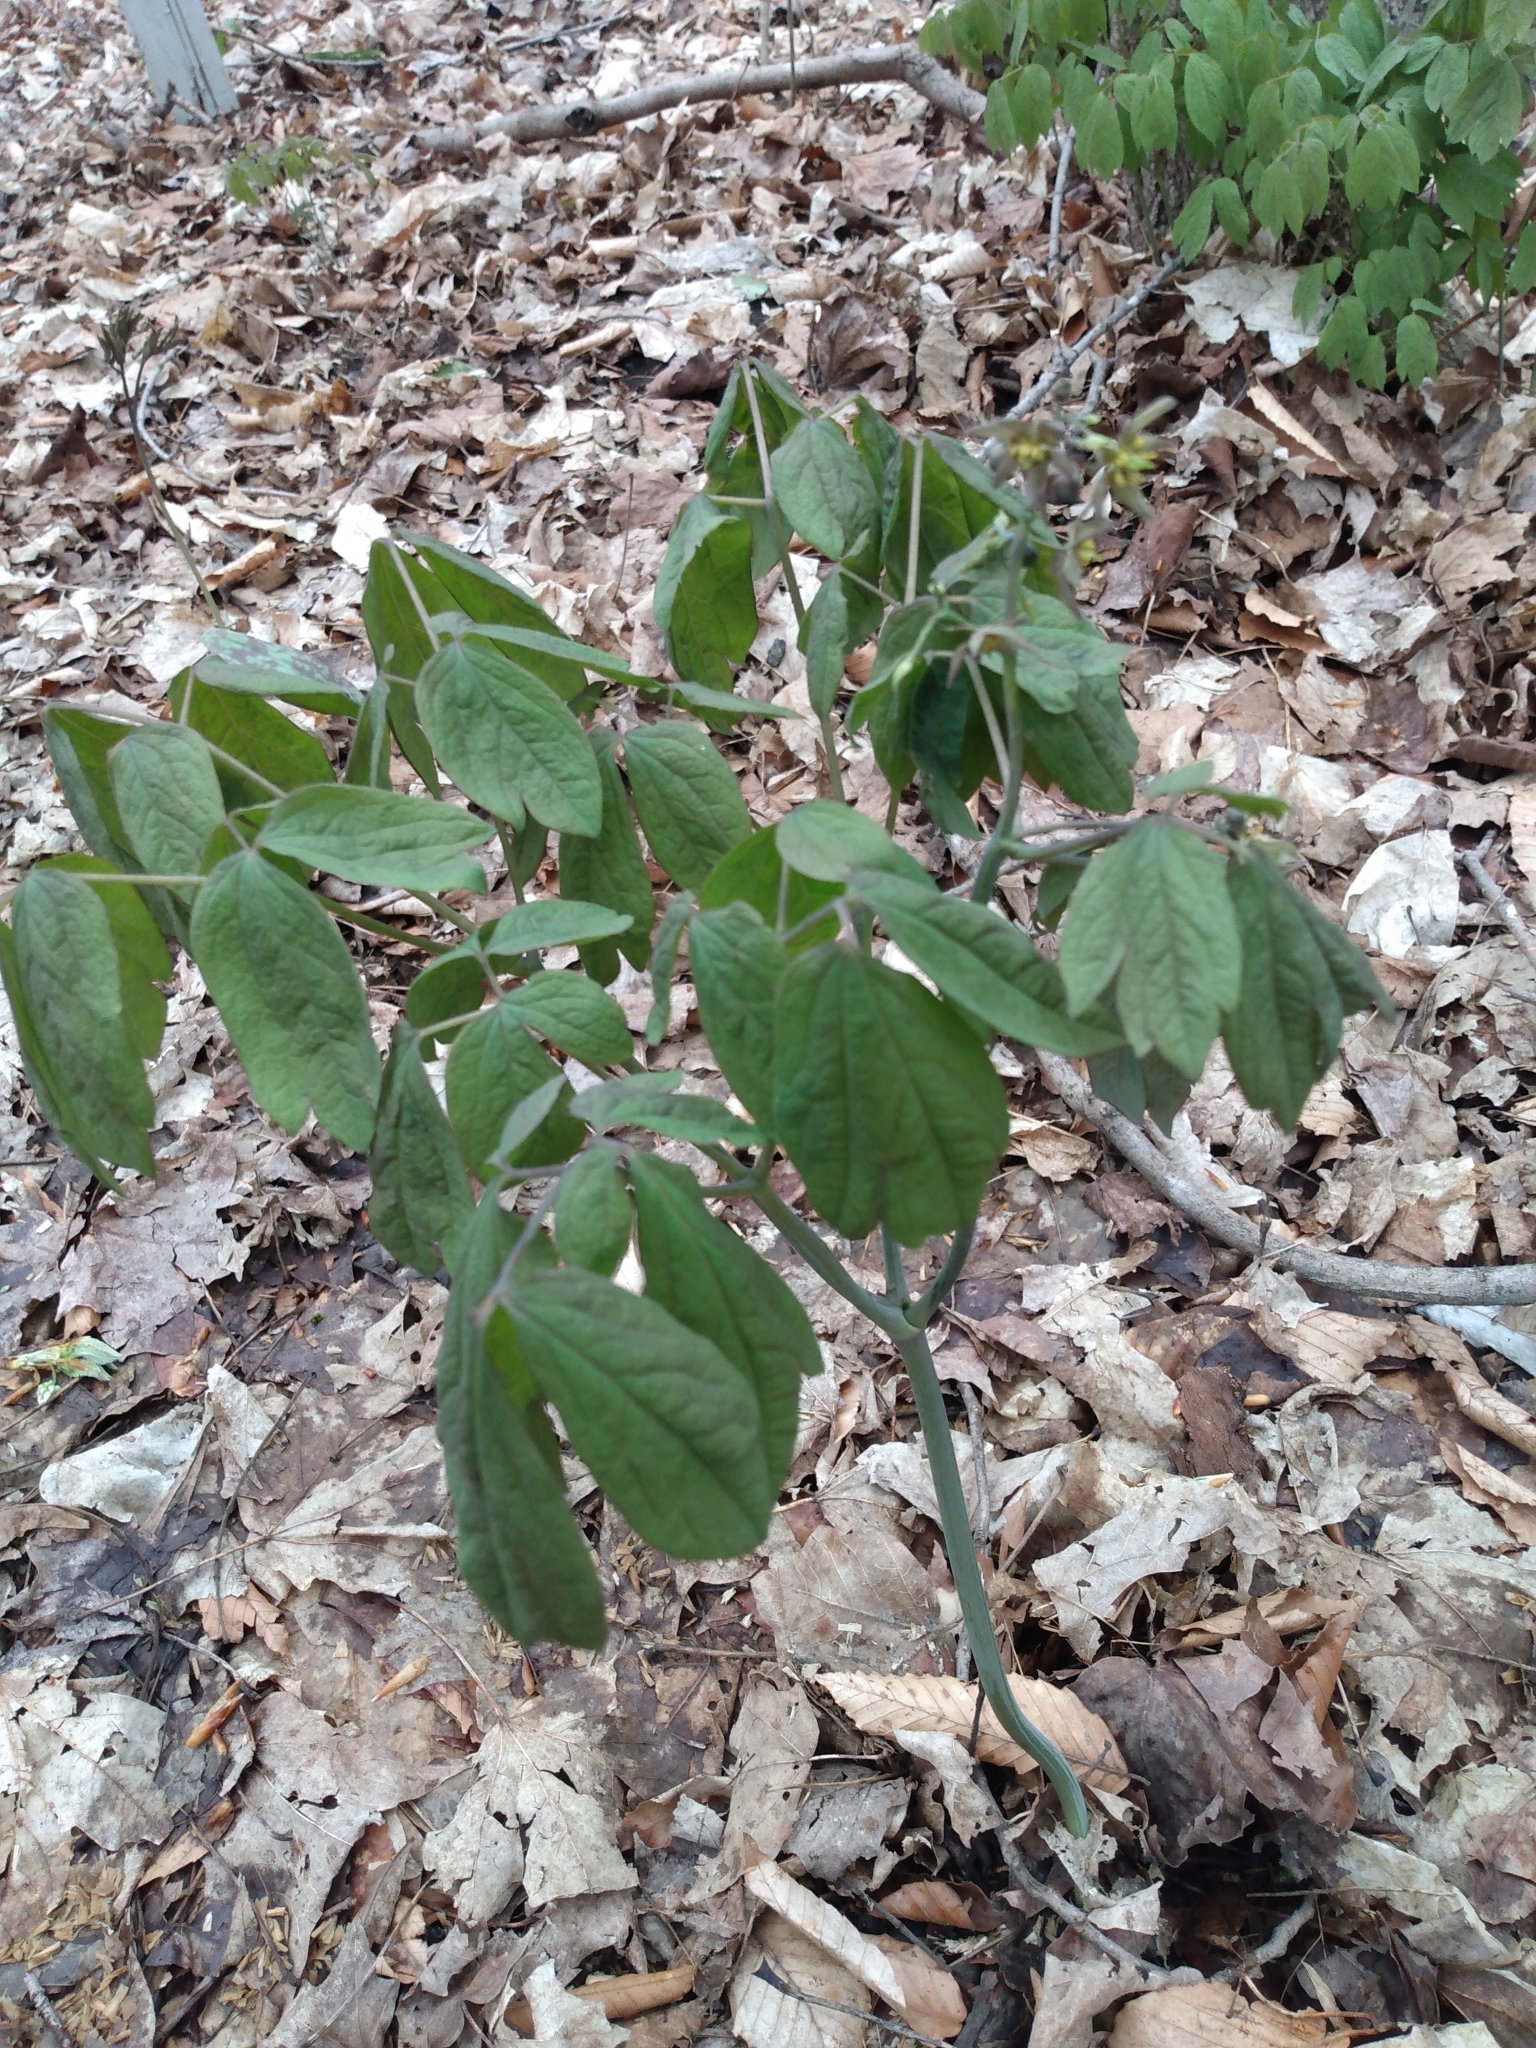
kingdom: Plantae
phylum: Tracheophyta
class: Magnoliopsida
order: Ranunculales
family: Berberidaceae
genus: Caulophyllum
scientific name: Caulophyllum giganteum
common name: Blue cohosh
